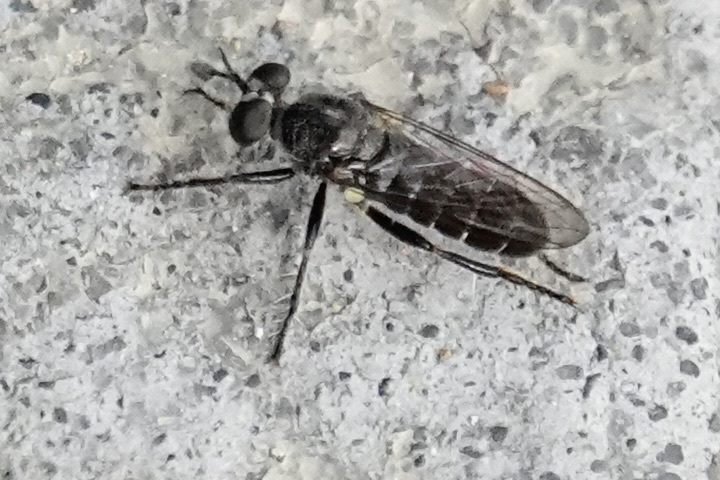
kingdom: Animalia
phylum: Arthropoda
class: Insecta
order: Diptera
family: Asilidae
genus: Atomosia
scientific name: Atomosia puella
